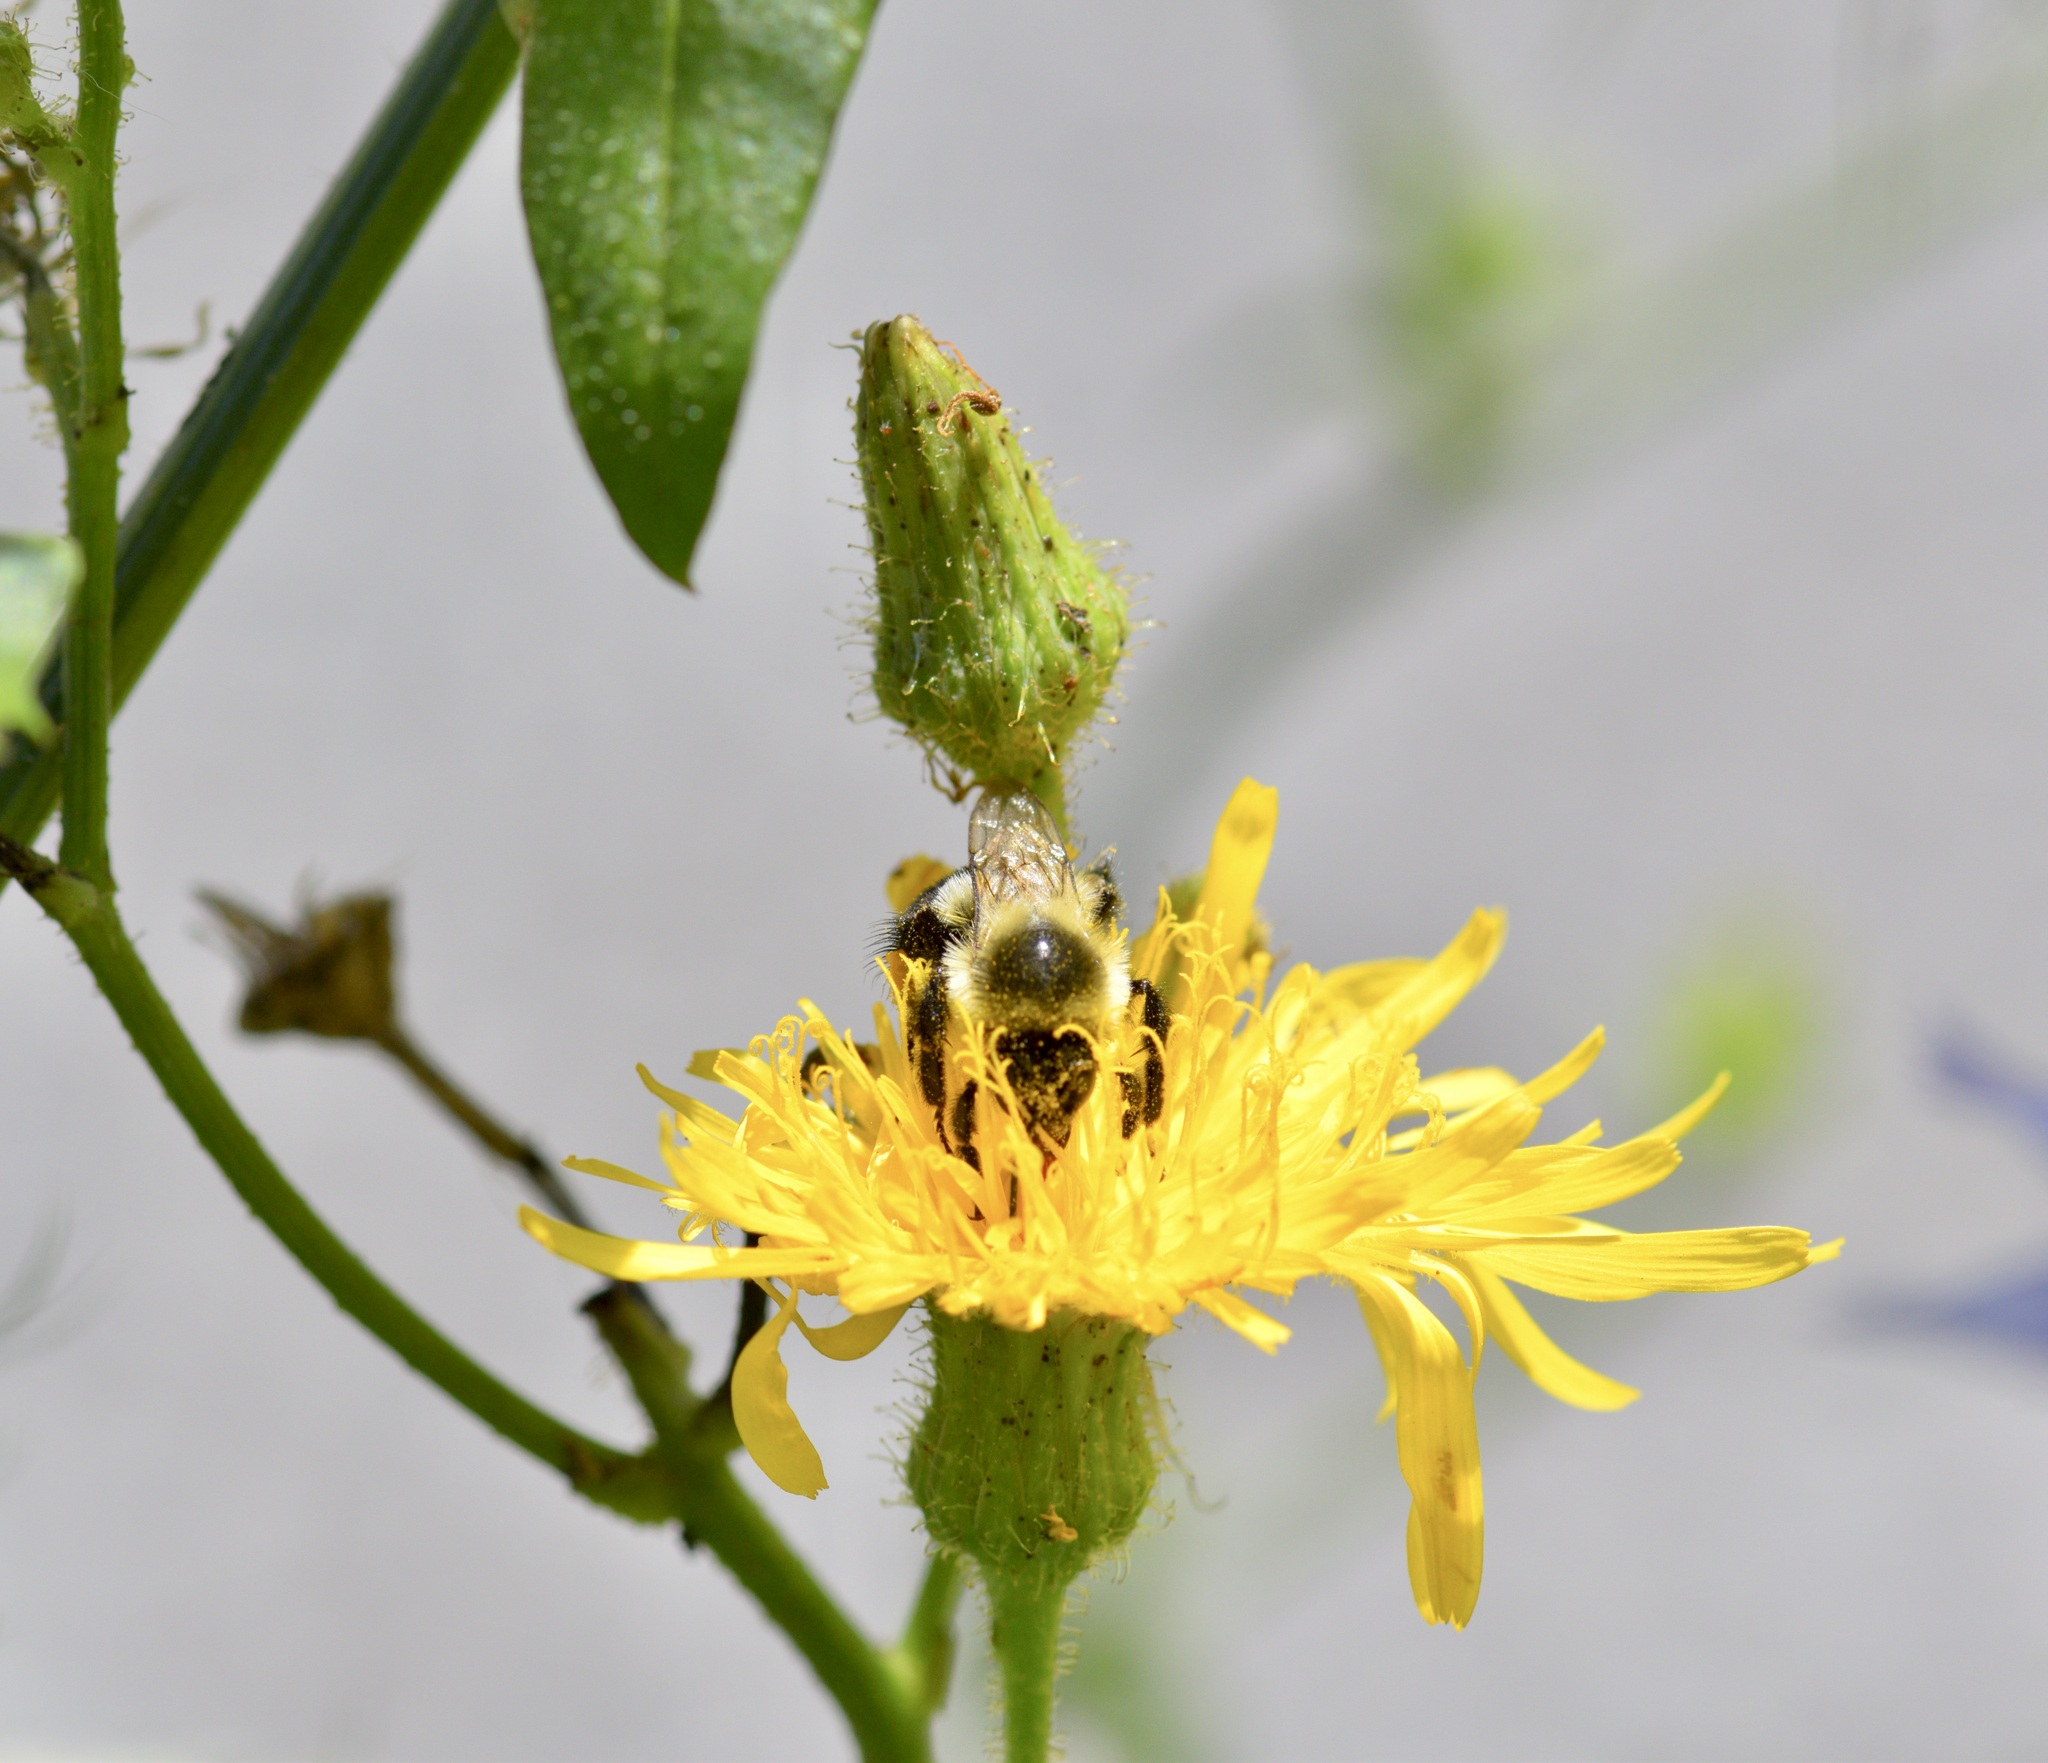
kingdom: Animalia
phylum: Arthropoda
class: Insecta
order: Hymenoptera
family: Apidae
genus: Bombus
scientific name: Bombus impatiens
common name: Common eastern bumble bee
